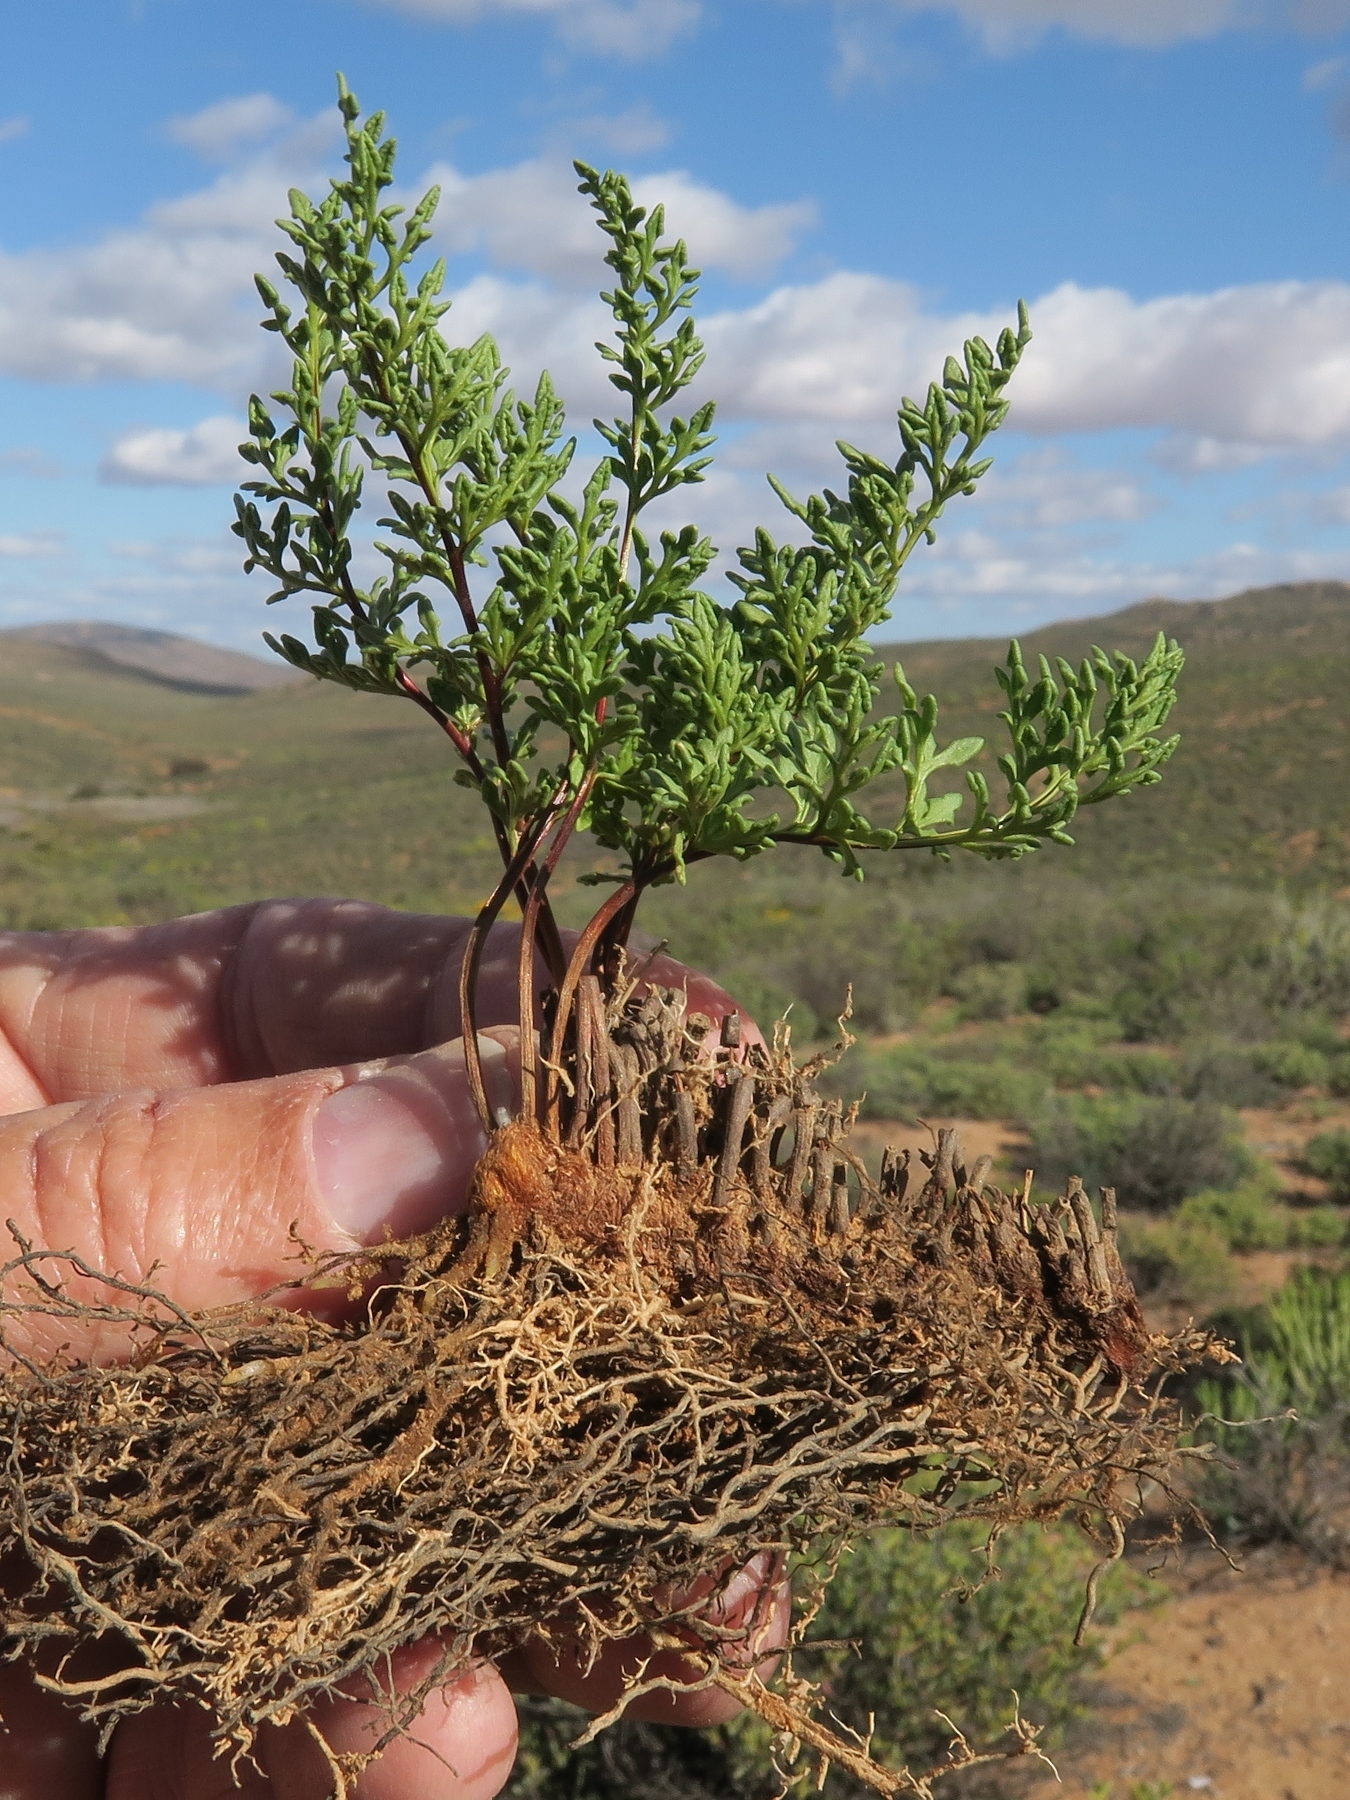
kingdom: Plantae
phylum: Tracheophyta
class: Polypodiopsida
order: Polypodiales
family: Pteridaceae
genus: Cheilanthes
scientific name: Cheilanthes robusta
